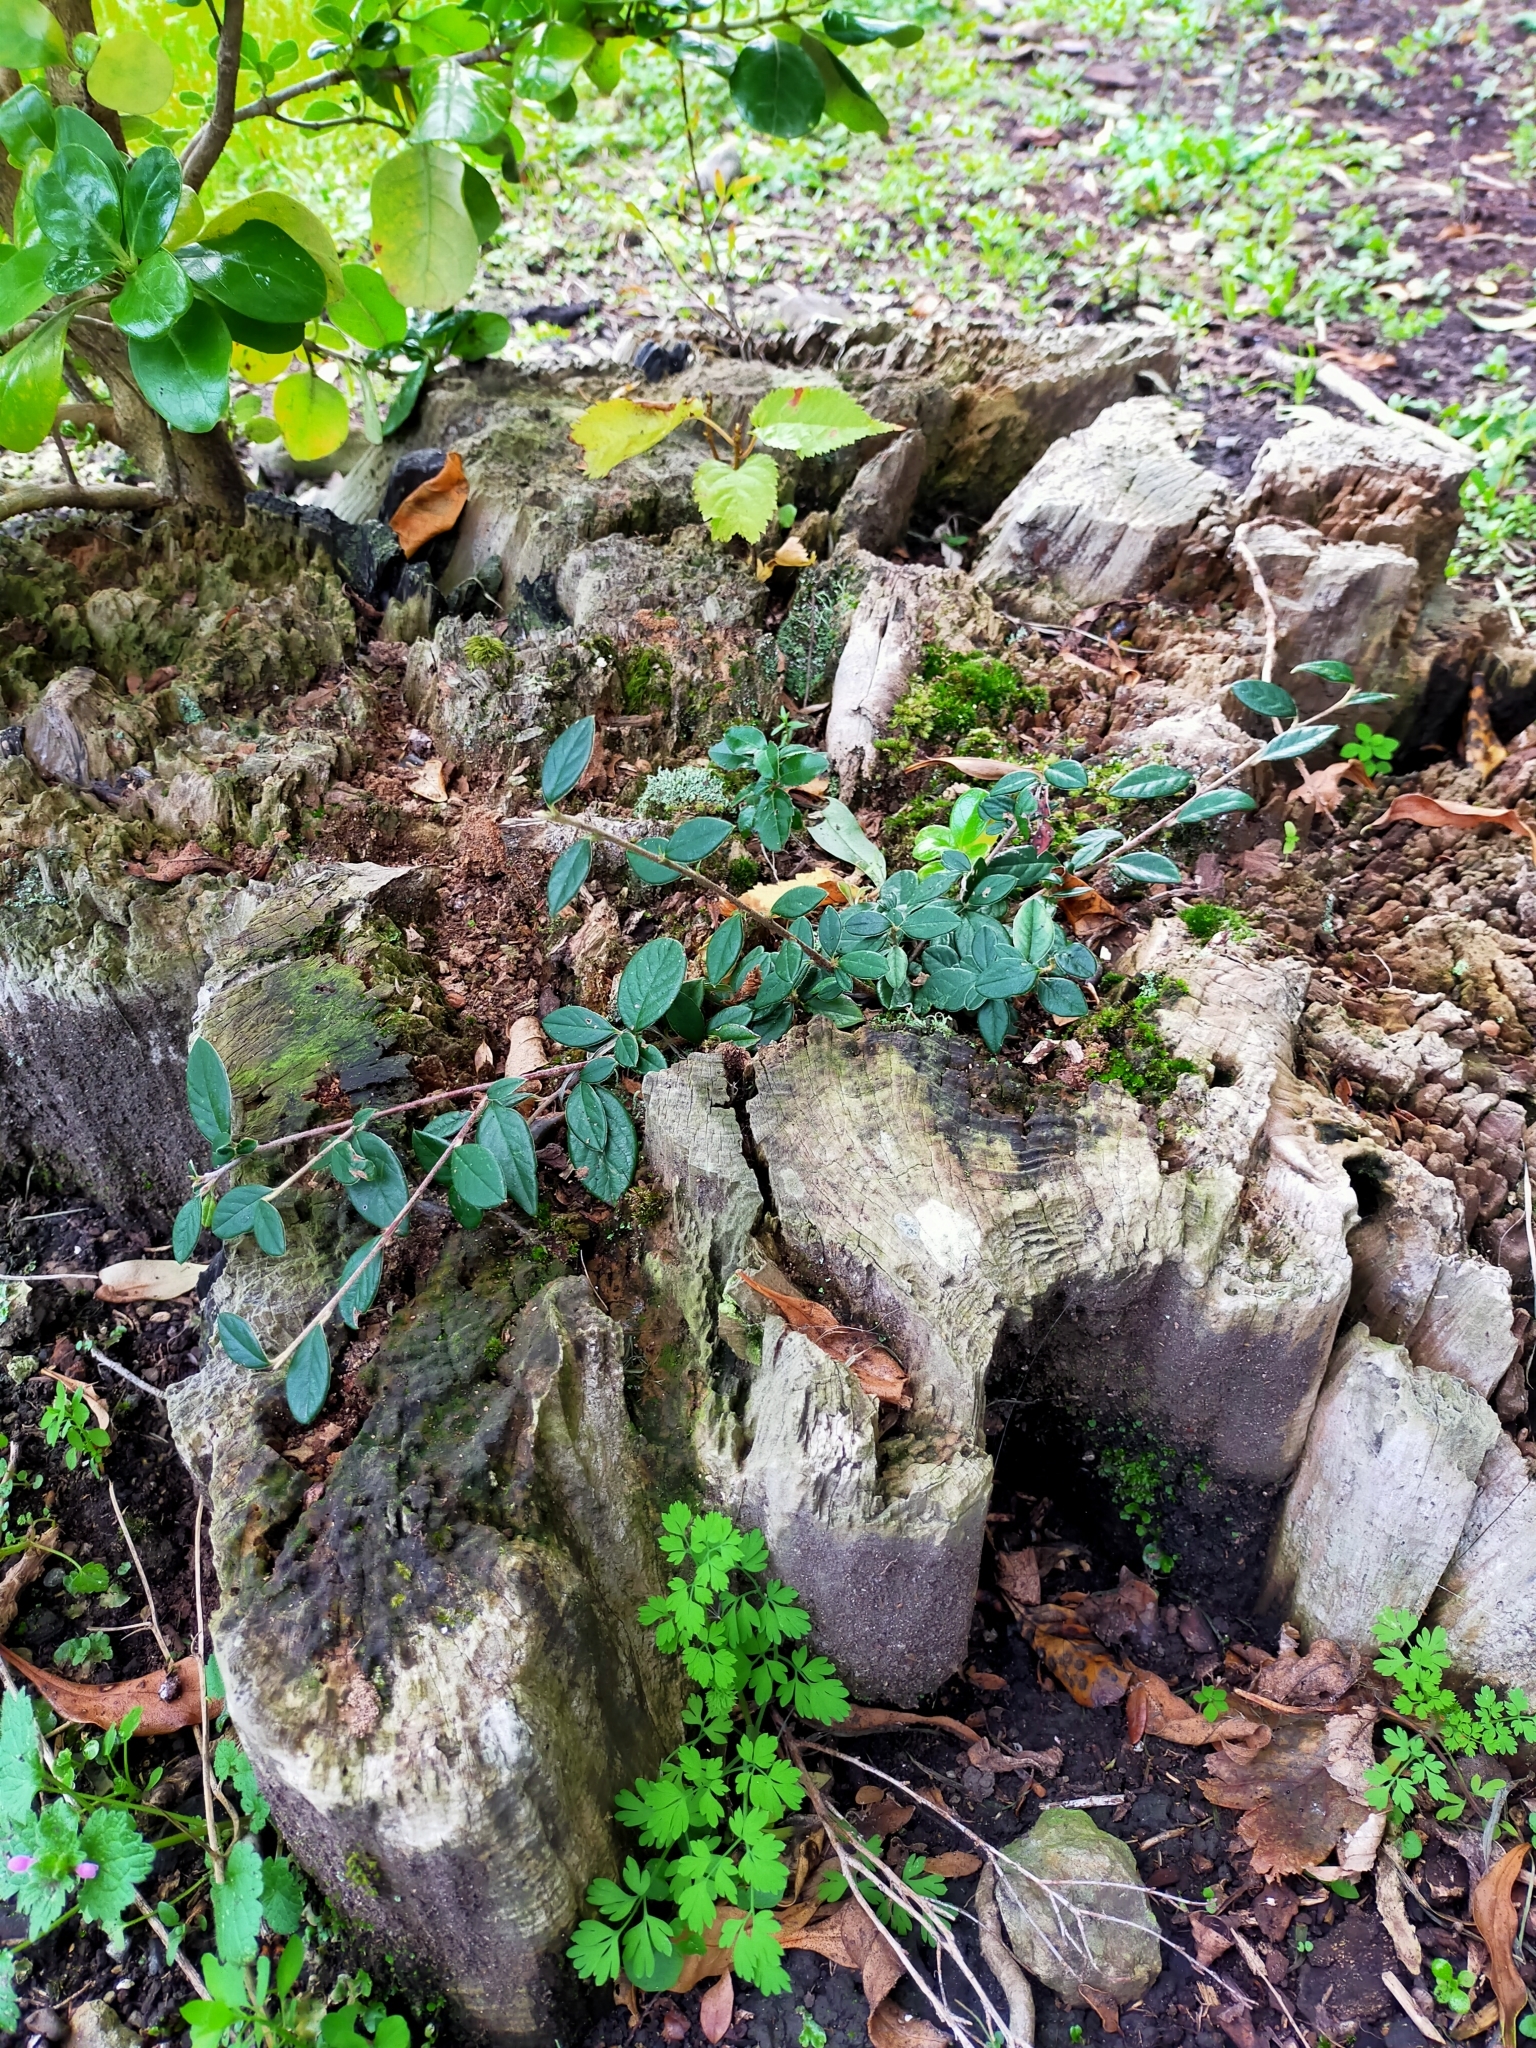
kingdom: Plantae
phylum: Tracheophyta
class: Magnoliopsida
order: Rosales
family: Rosaceae
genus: Cotoneaster
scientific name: Cotoneaster coriaceus
